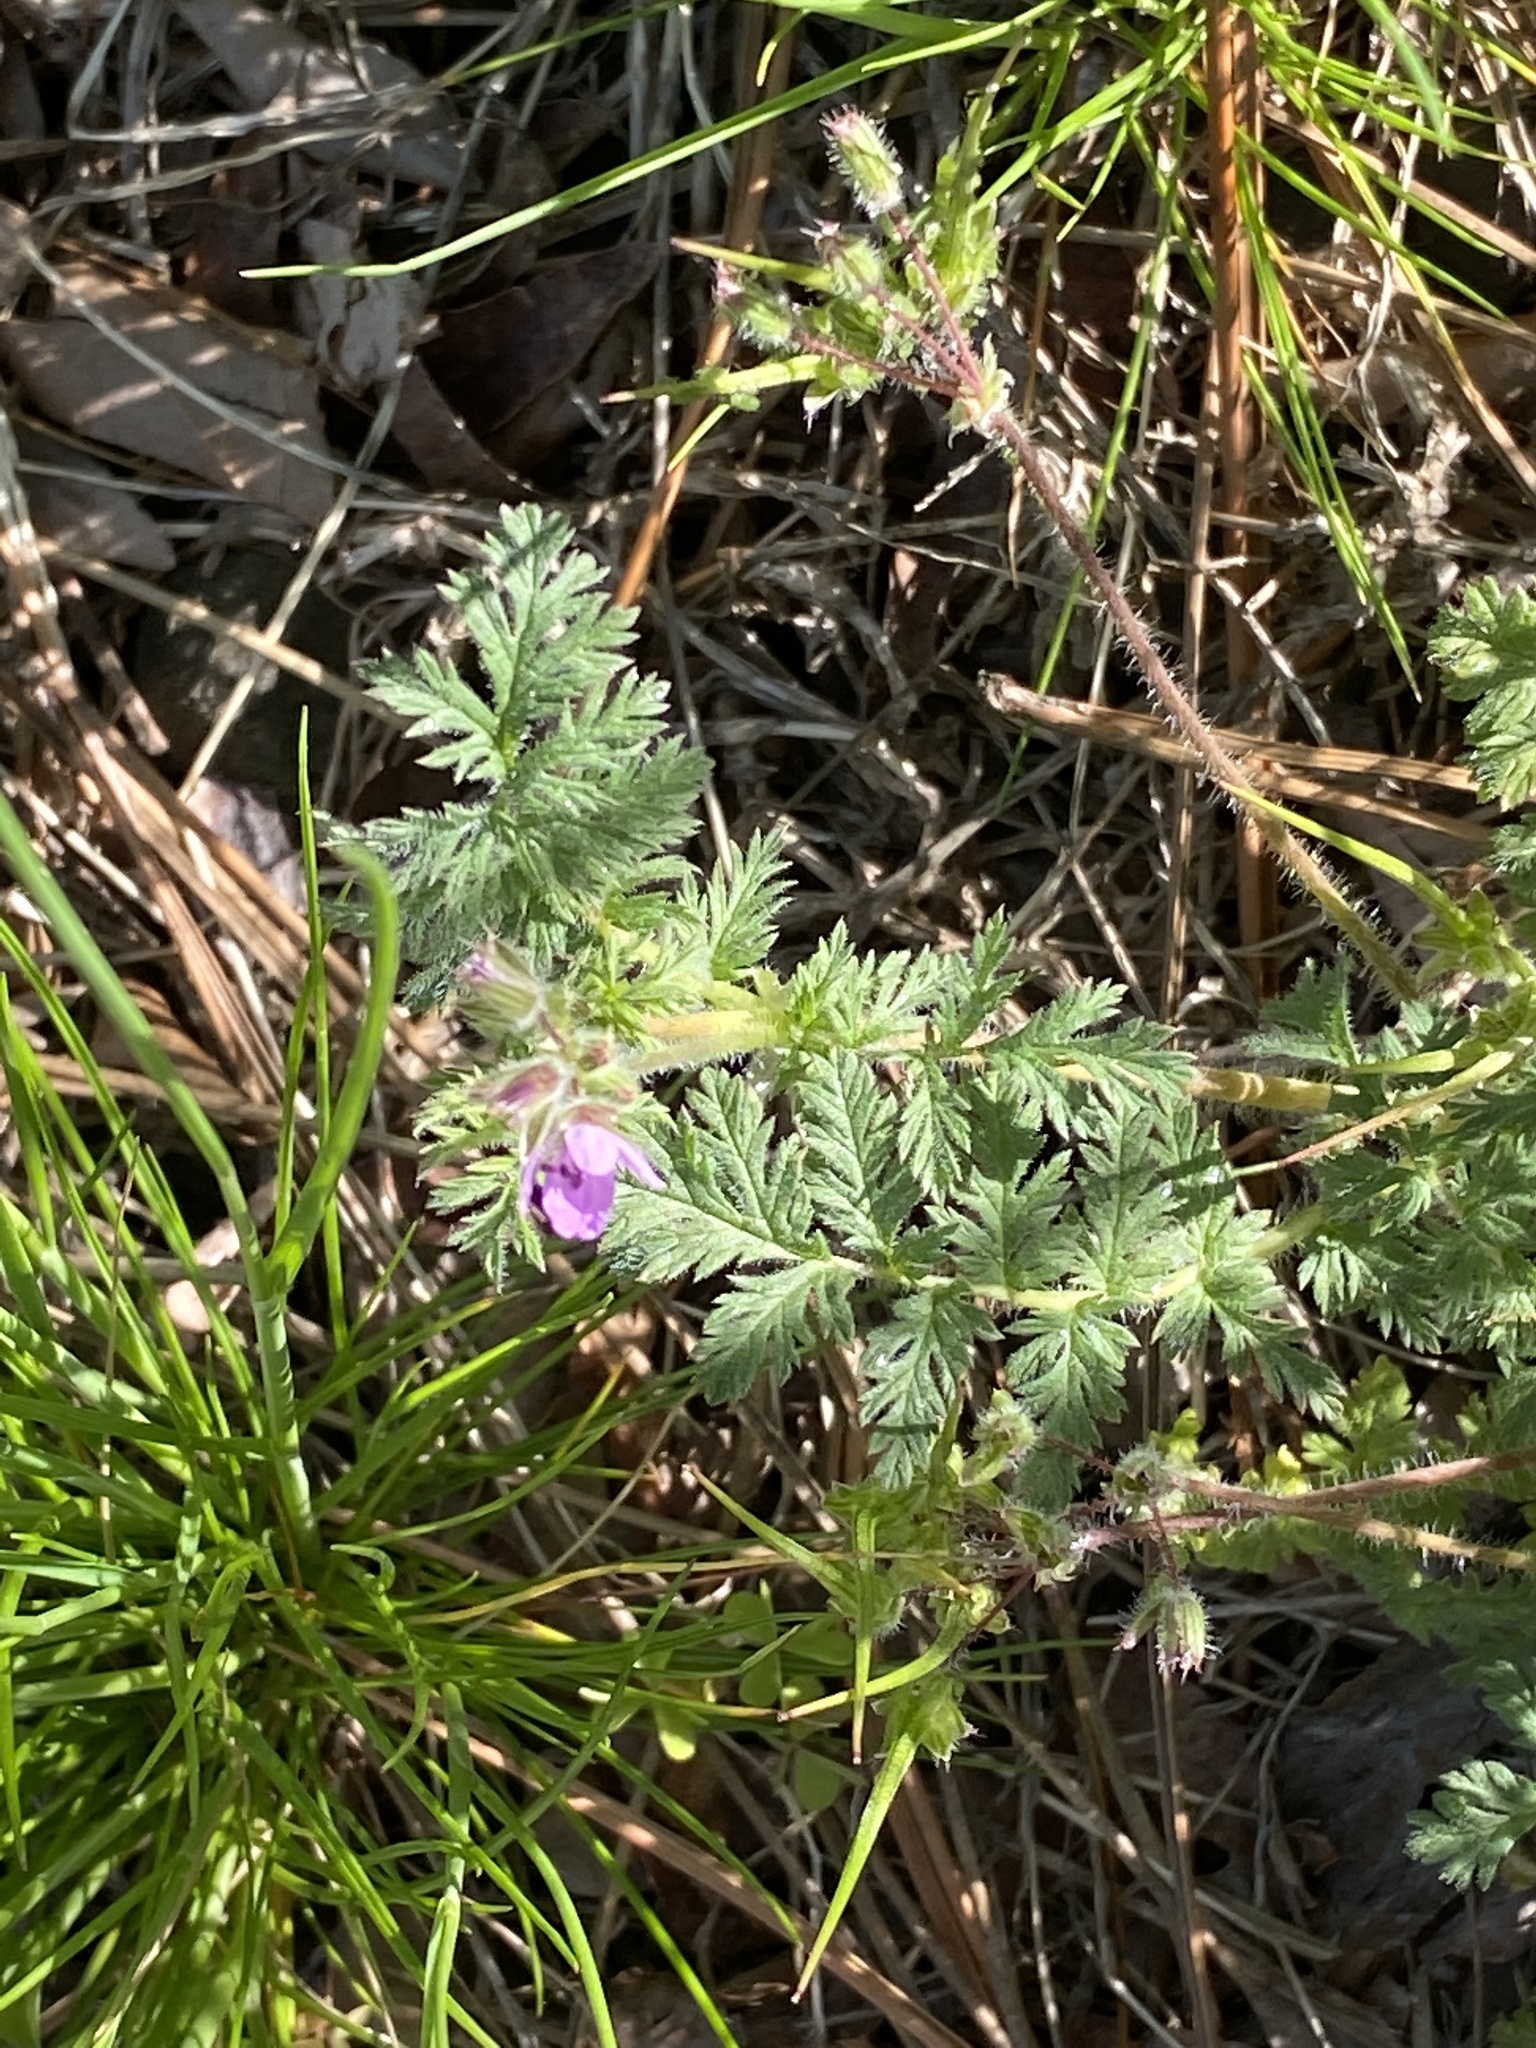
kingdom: Plantae
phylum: Tracheophyta
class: Magnoliopsida
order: Geraniales
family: Geraniaceae
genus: Erodium
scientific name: Erodium cicutarium
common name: Common stork's-bill
